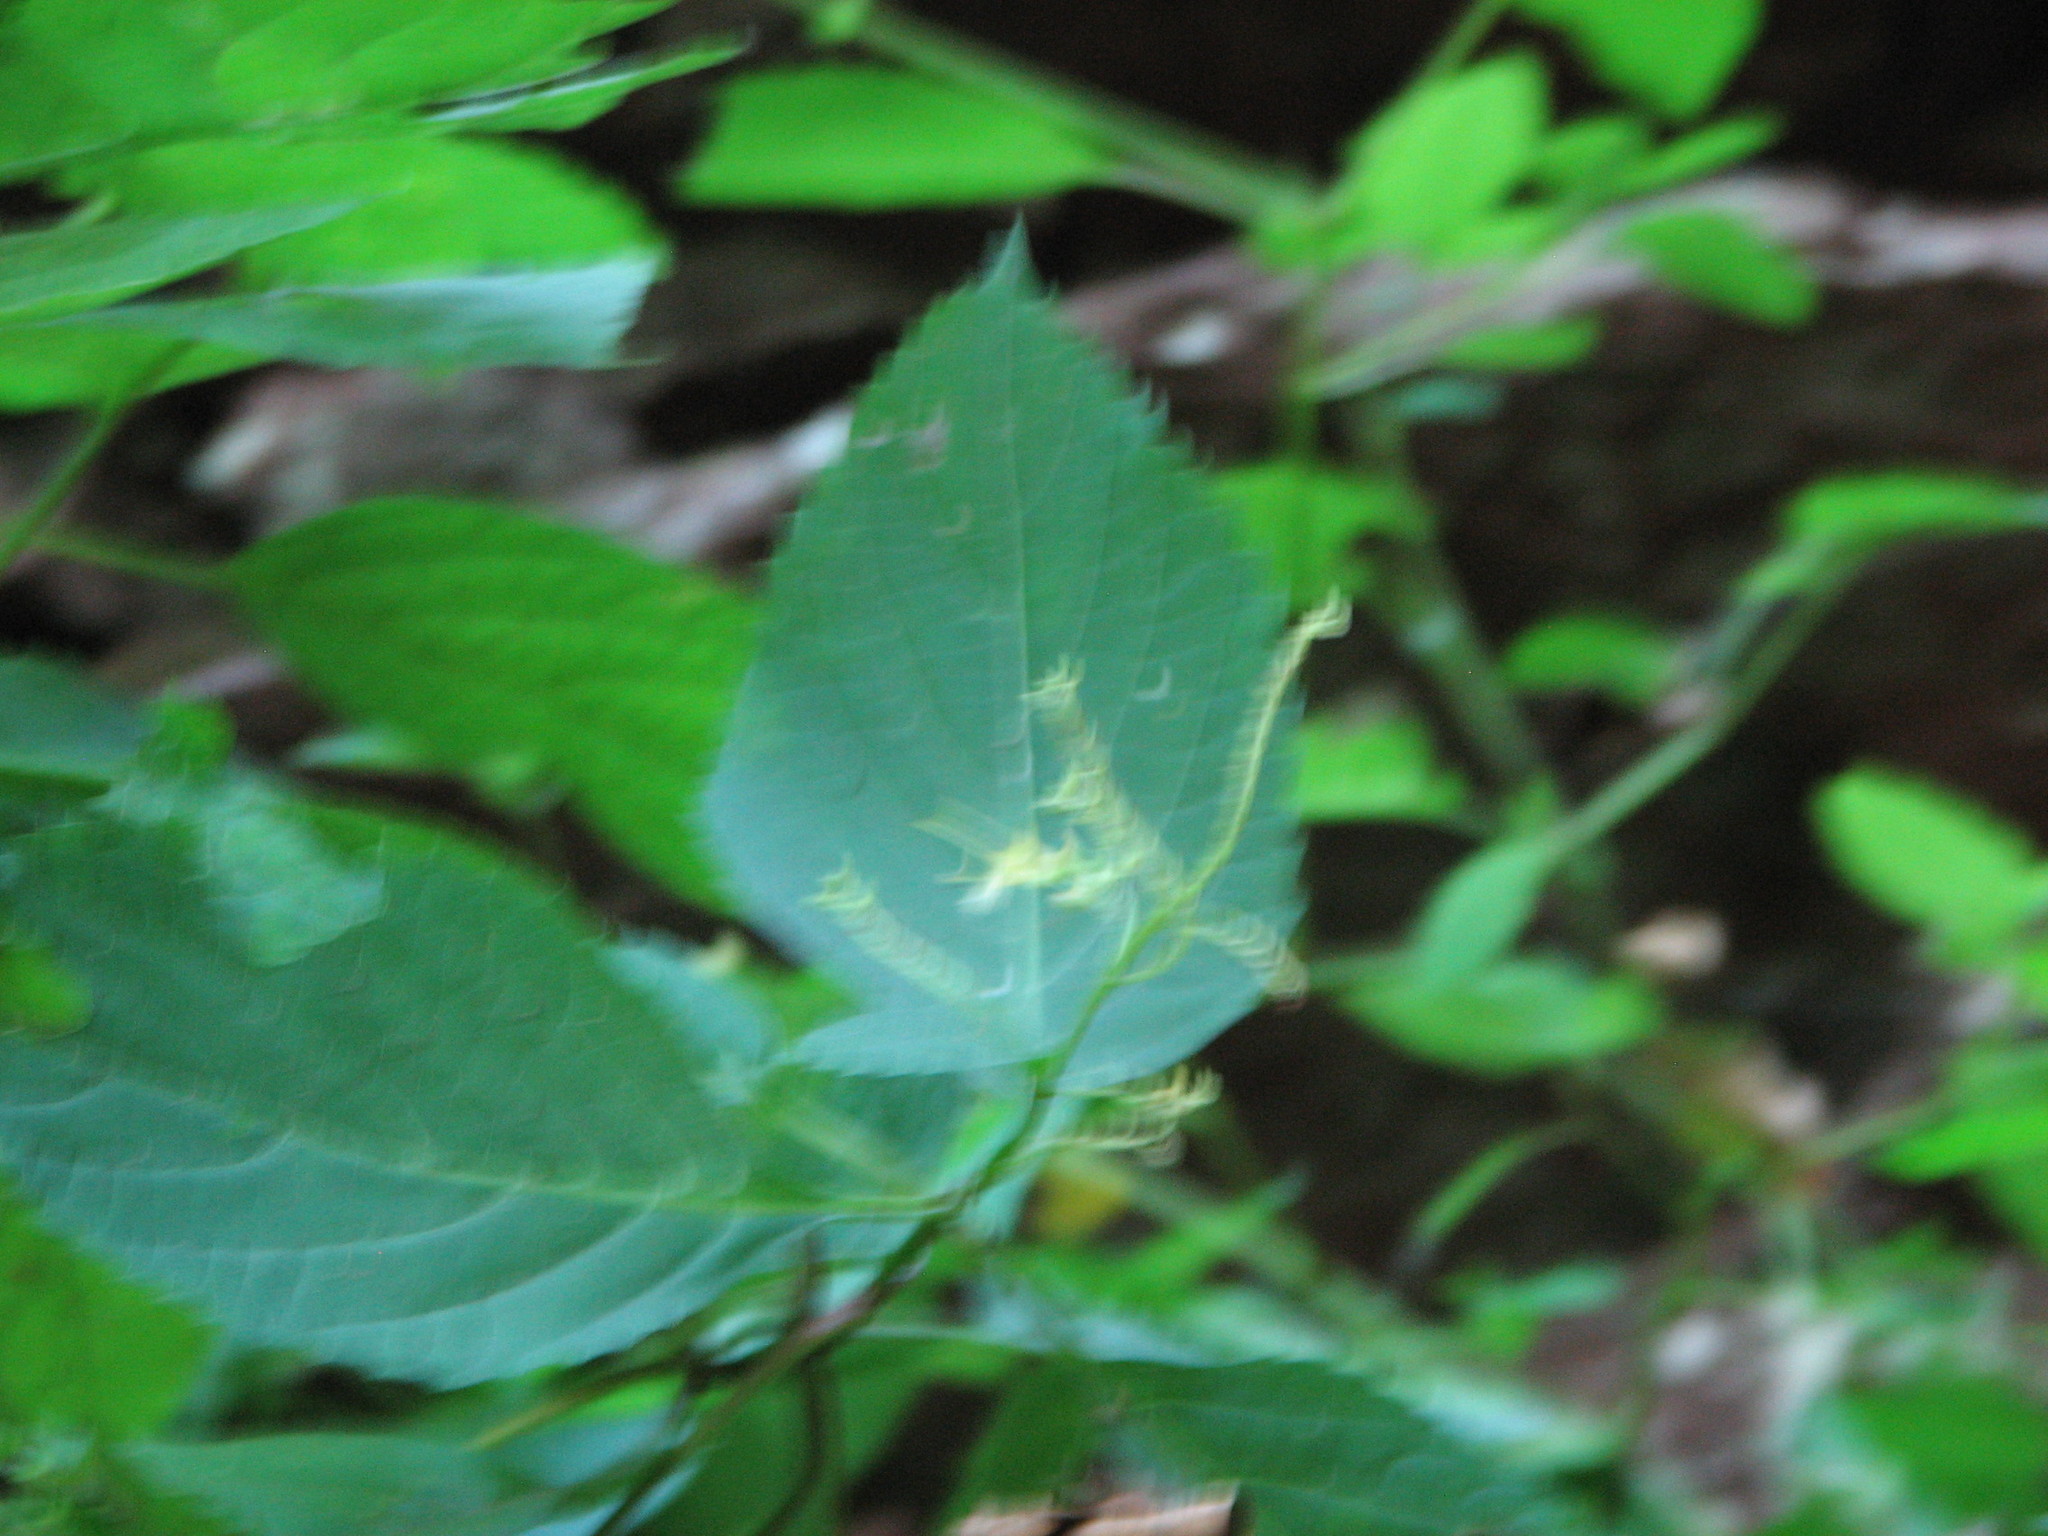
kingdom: Plantae
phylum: Tracheophyta
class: Magnoliopsida
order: Lamiales
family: Lamiaceae
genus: Collinsonia
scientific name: Collinsonia canadensis
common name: Northern horsebalm
